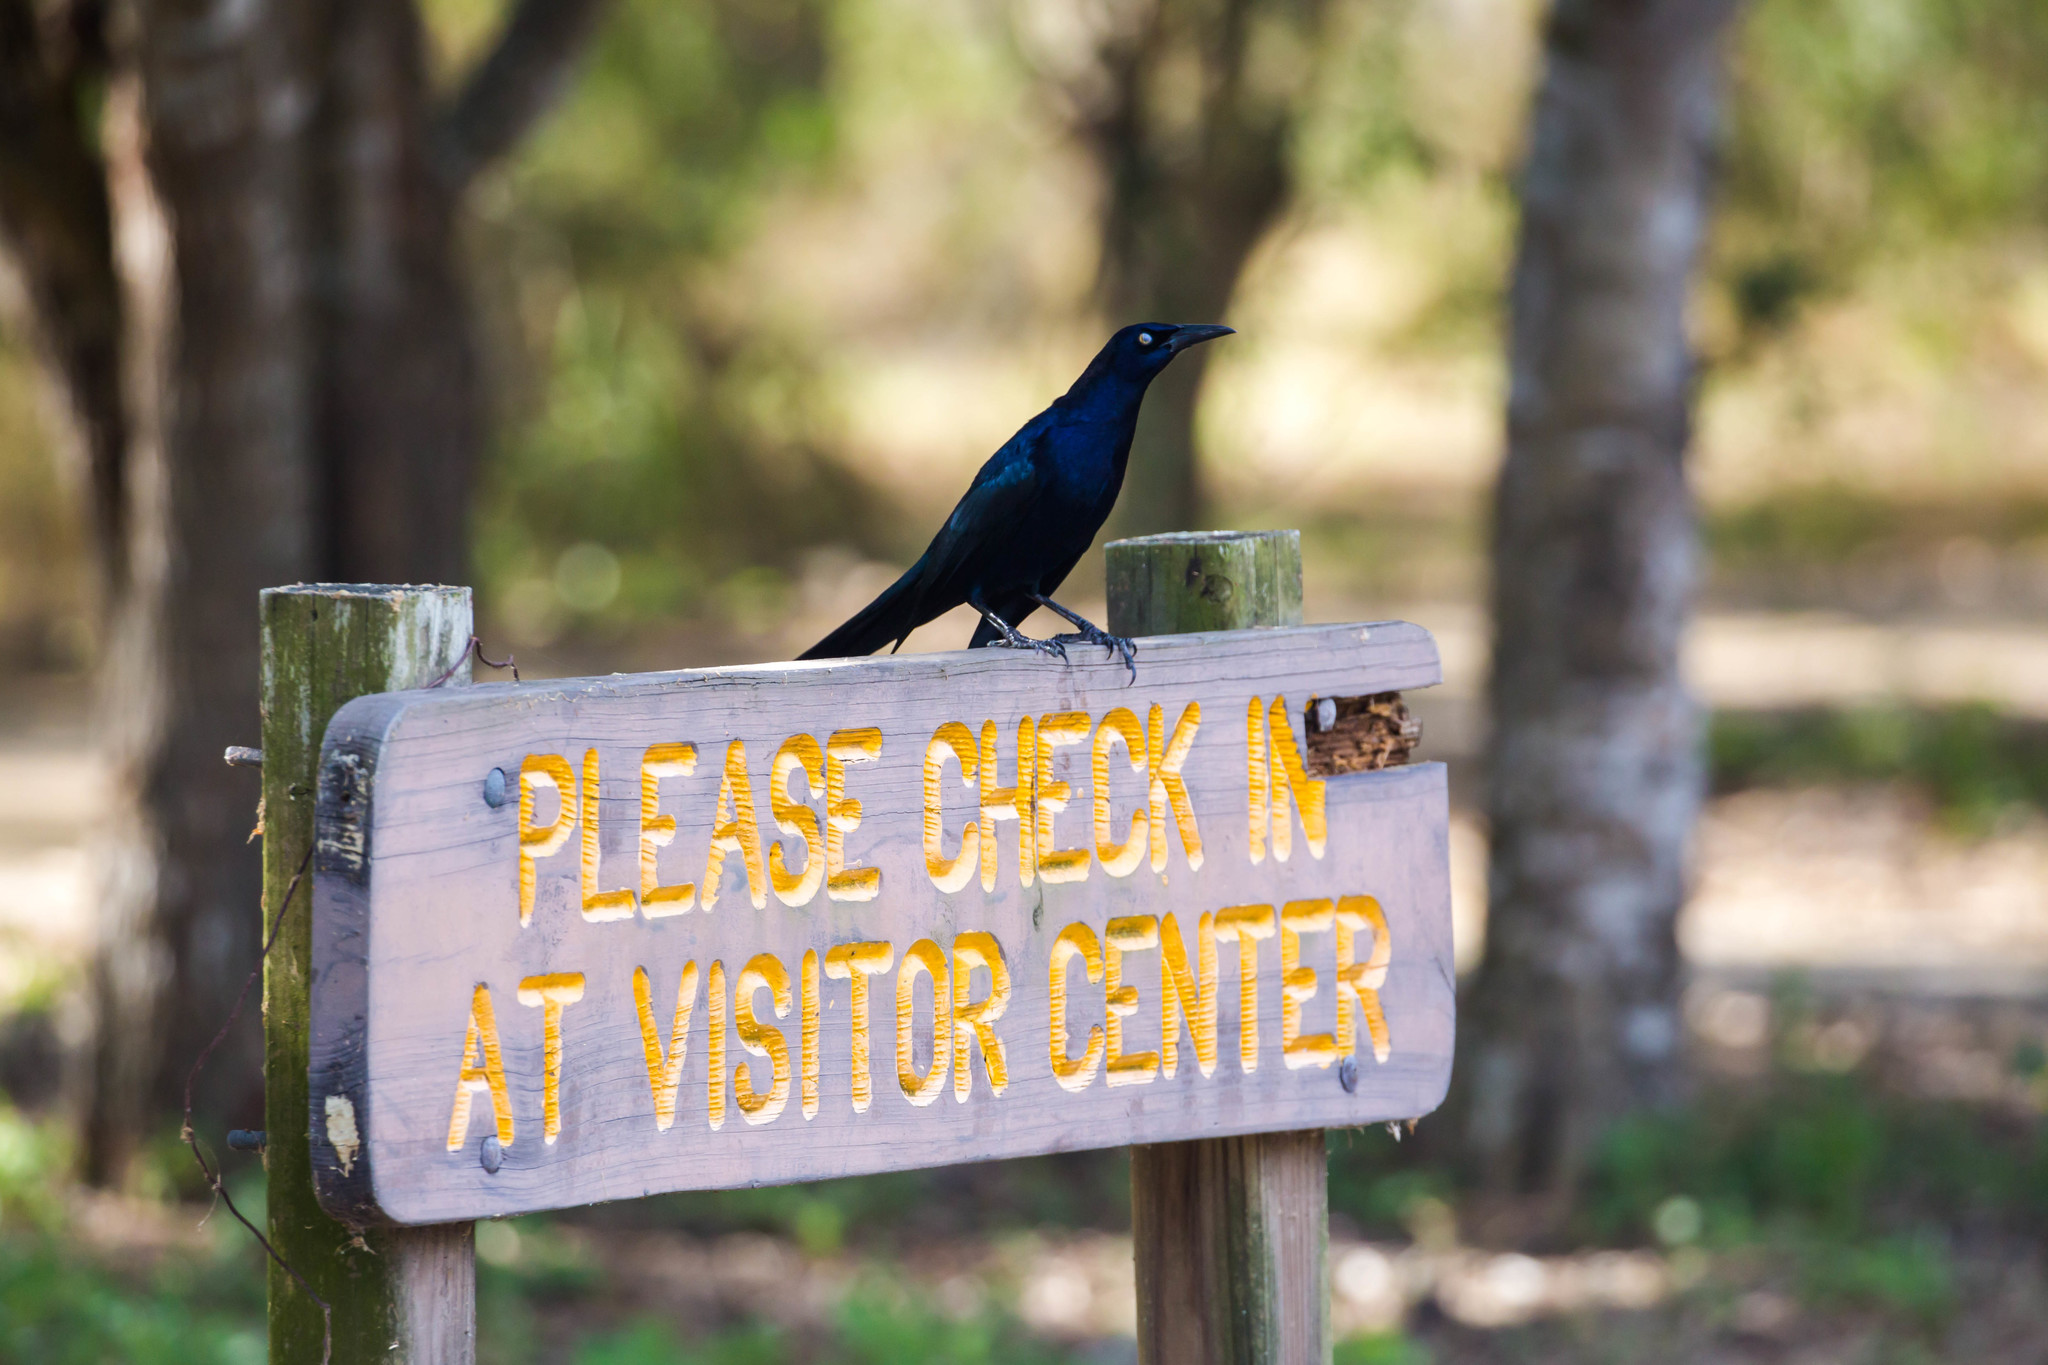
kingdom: Animalia
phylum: Chordata
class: Aves
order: Passeriformes
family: Icteridae
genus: Quiscalus
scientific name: Quiscalus mexicanus
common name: Great-tailed grackle
